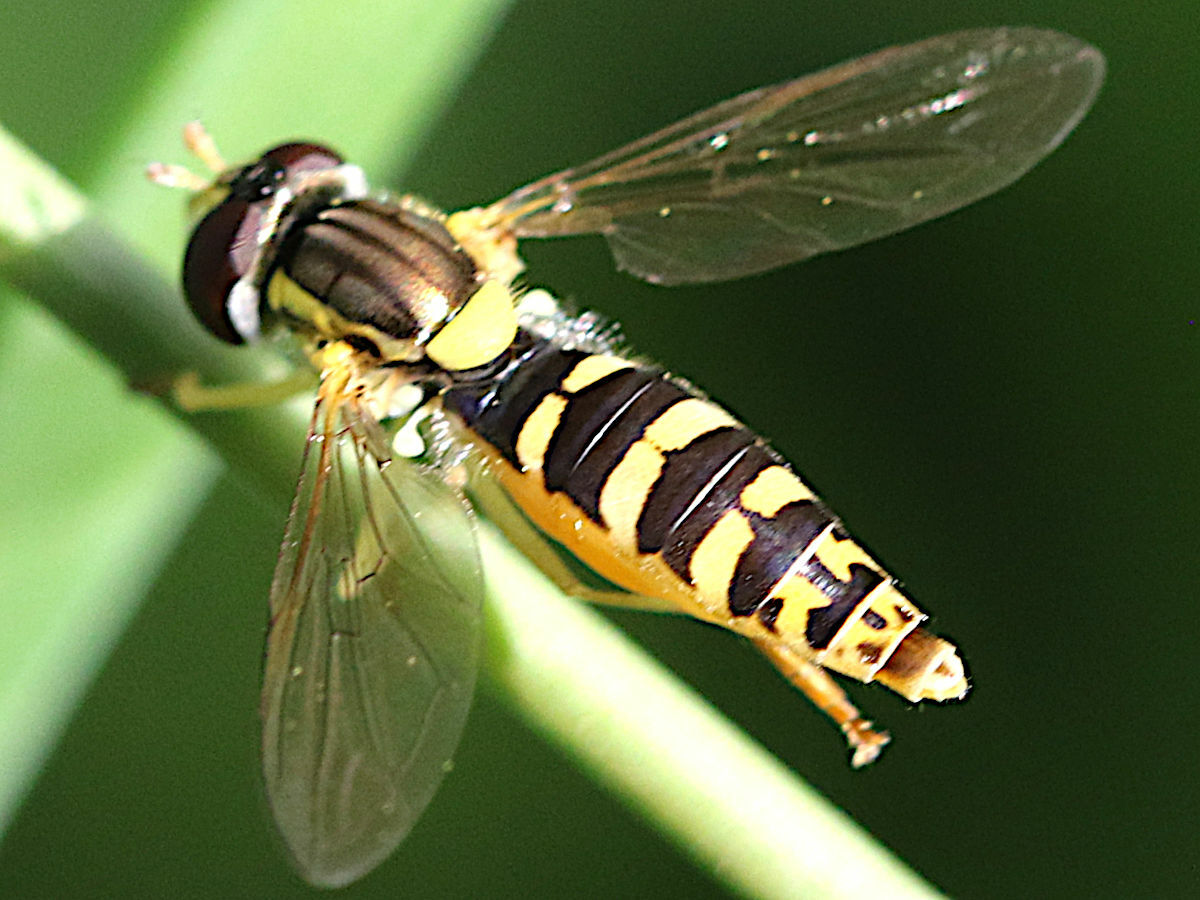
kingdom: Animalia
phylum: Arthropoda
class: Insecta
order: Diptera
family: Syrphidae
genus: Sphaerophoria
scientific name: Sphaerophoria
